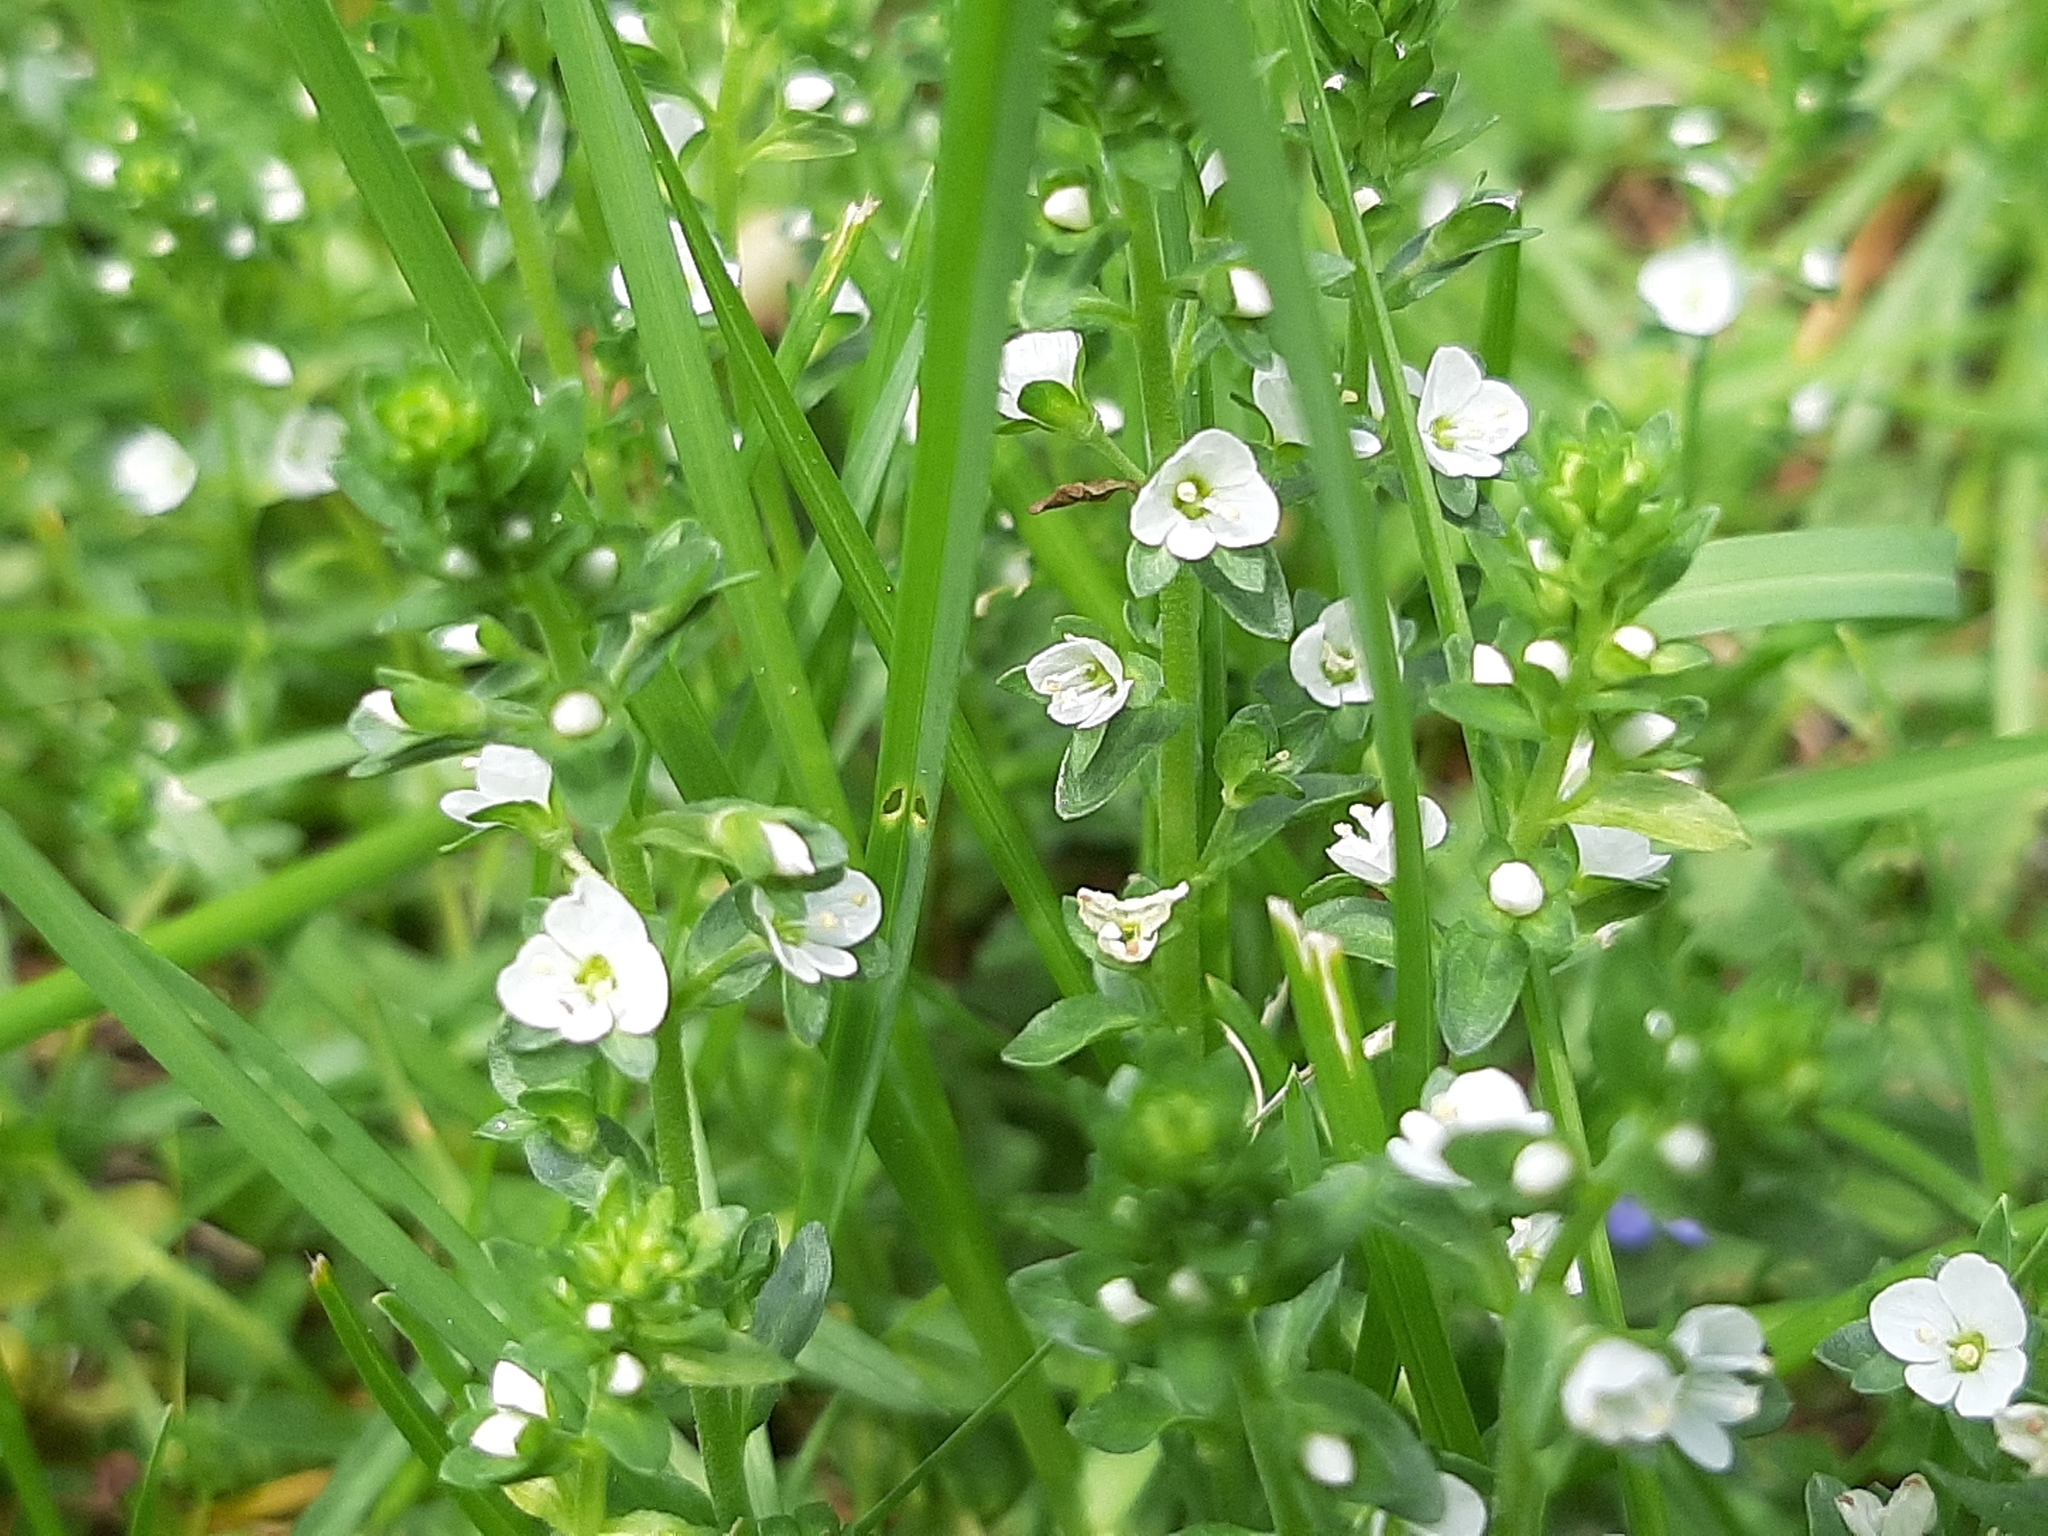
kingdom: Plantae
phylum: Tracheophyta
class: Magnoliopsida
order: Lamiales
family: Plantaginaceae
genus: Veronica
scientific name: Veronica serpyllifolia
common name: Thyme-leaved speedwell
